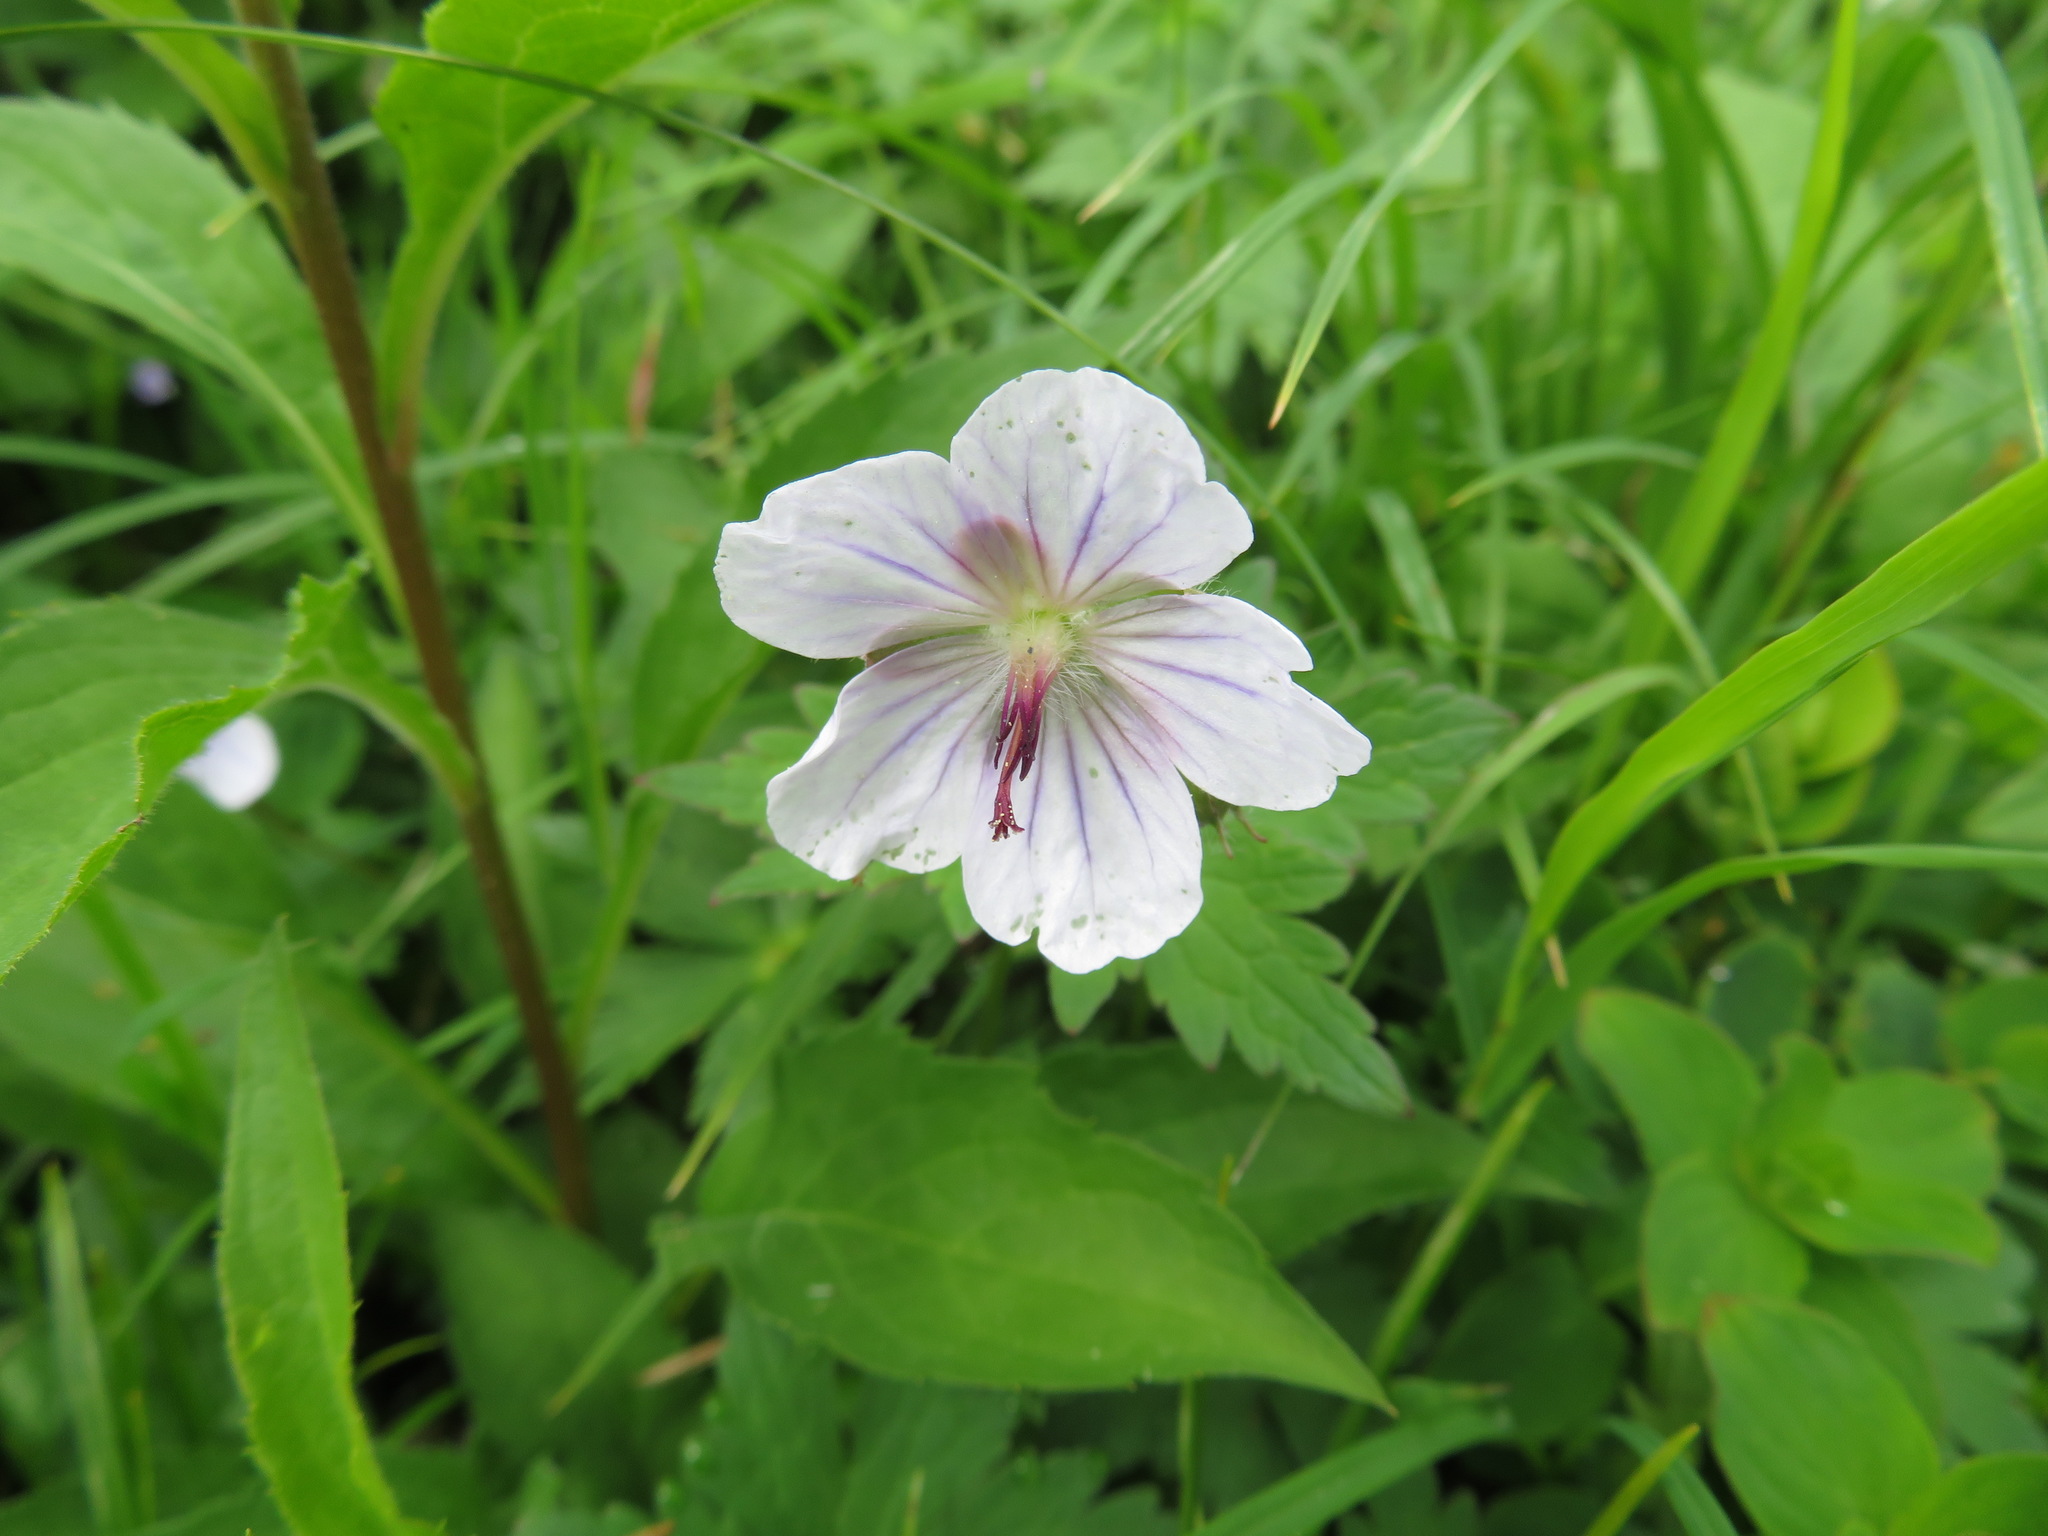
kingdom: Plantae
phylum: Tracheophyta
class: Magnoliopsida
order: Geraniales
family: Geraniaceae
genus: Geranium
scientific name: Geranium erianthum
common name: Northern crane's-bill
